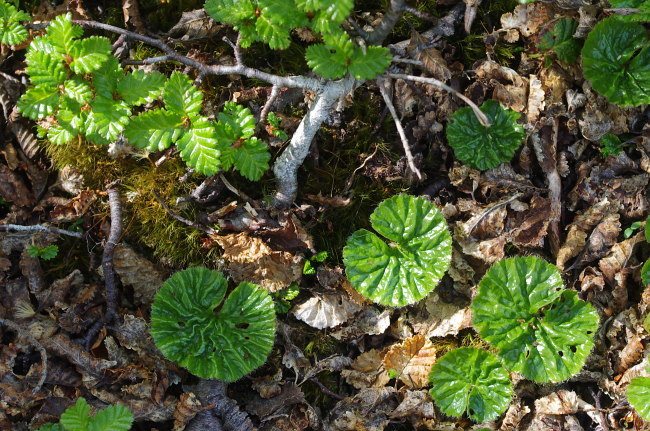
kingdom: Plantae
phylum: Tracheophyta
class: Magnoliopsida
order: Gunnerales
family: Gunneraceae
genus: Gunnera
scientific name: Gunnera magellanica
